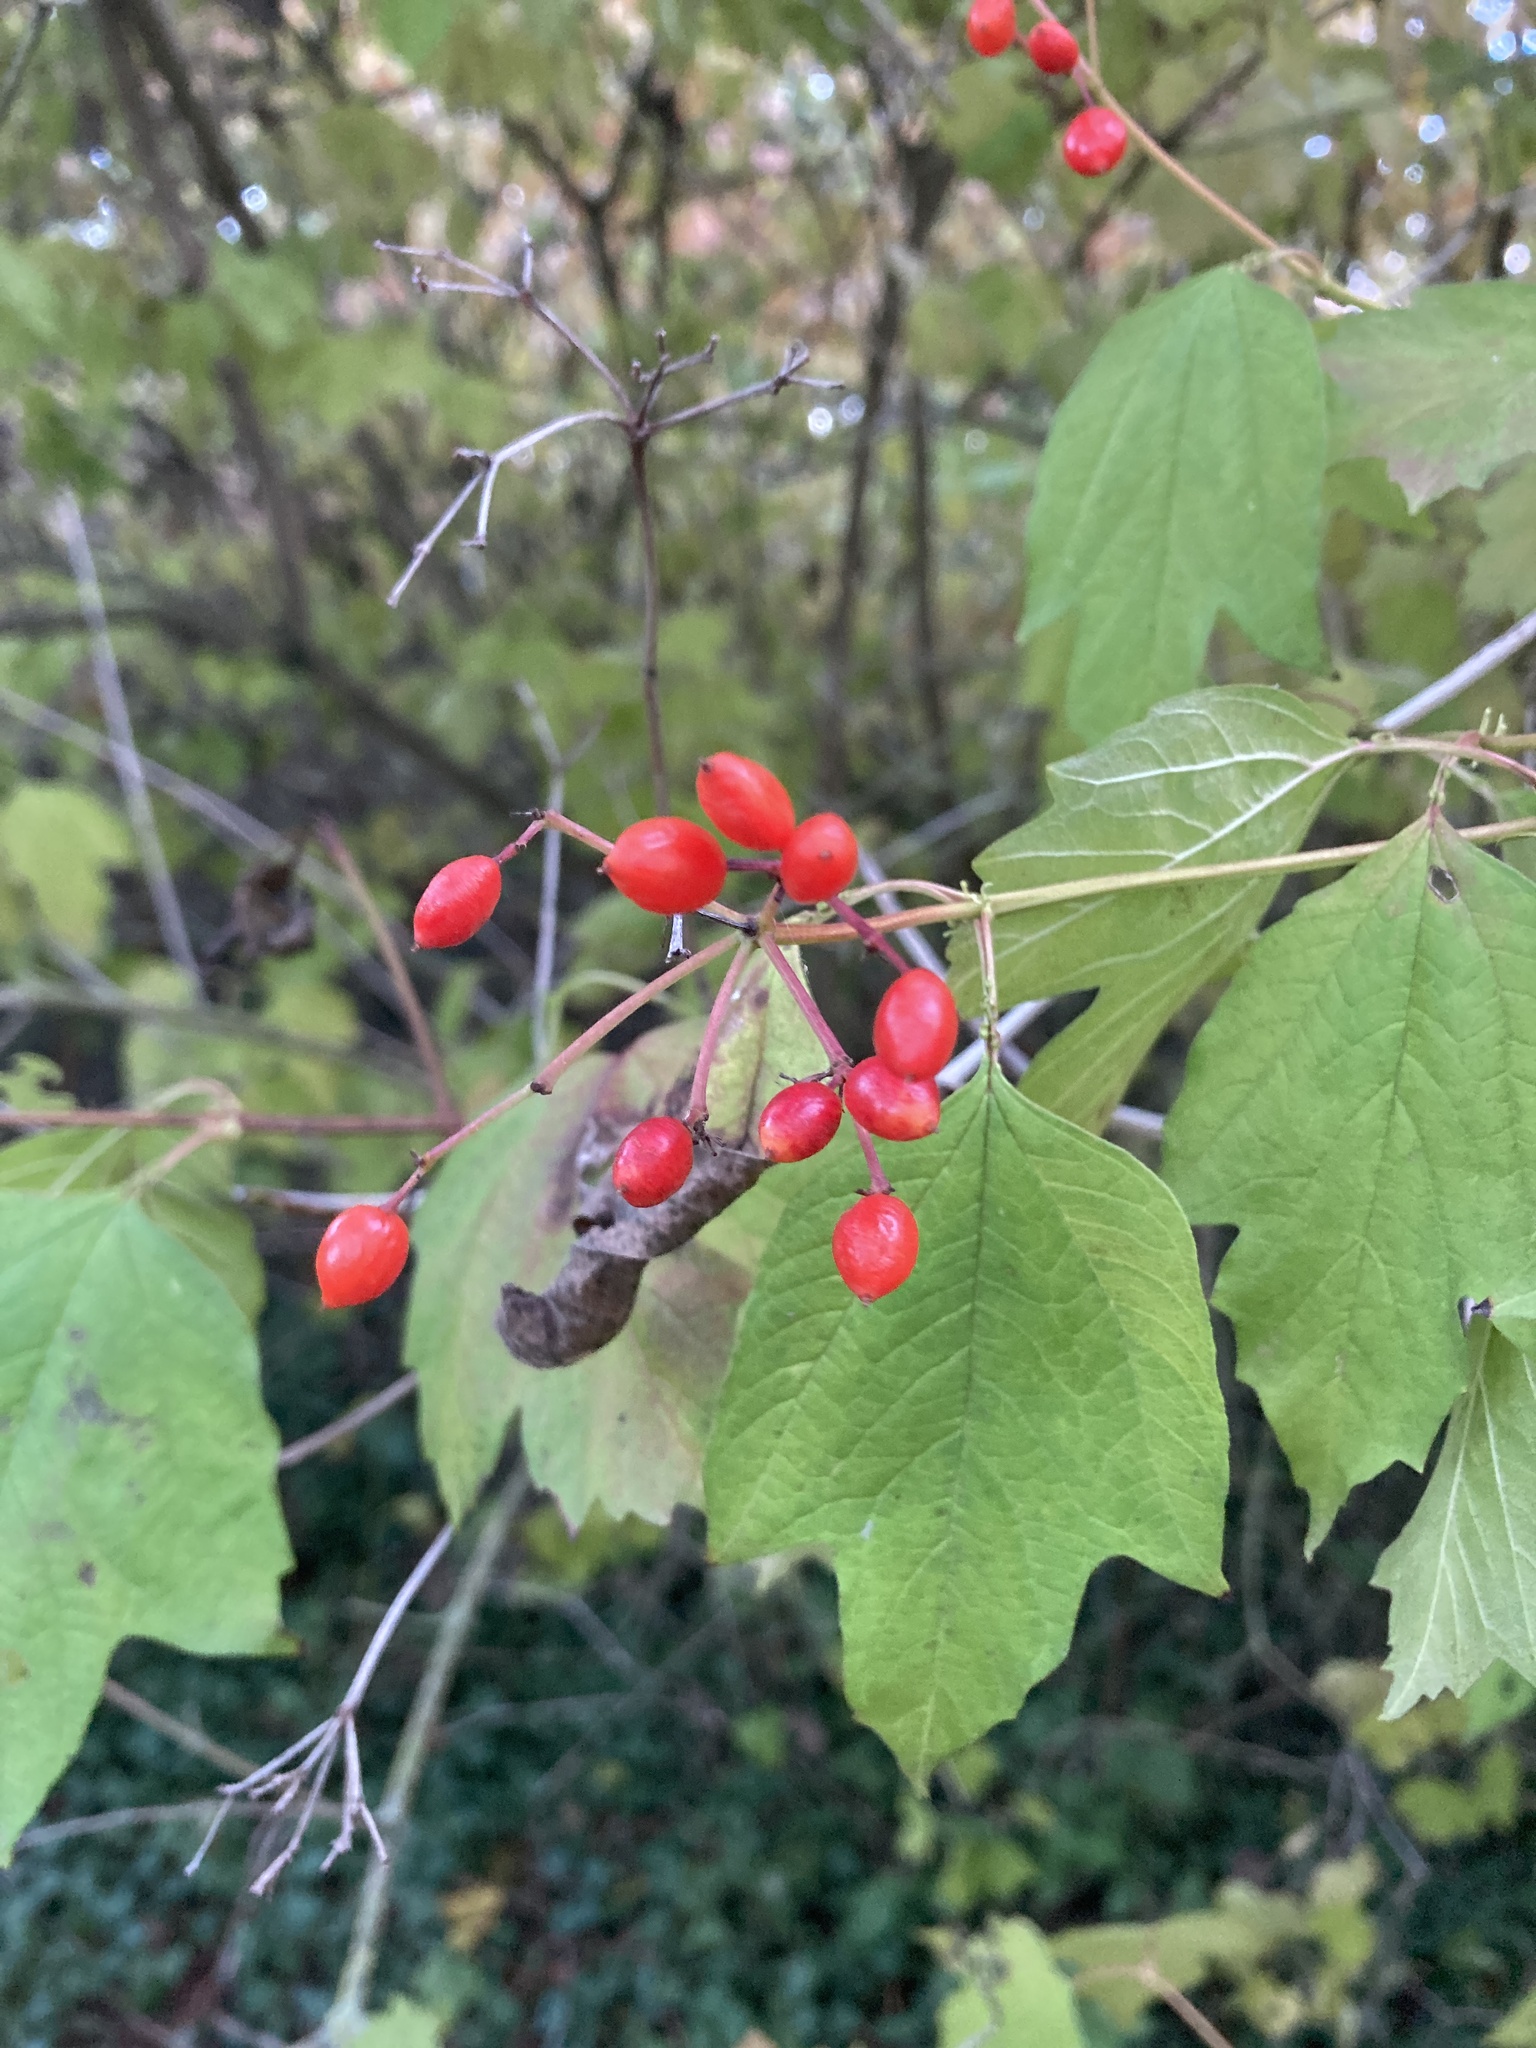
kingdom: Plantae
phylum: Tracheophyta
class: Magnoliopsida
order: Dipsacales
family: Viburnaceae
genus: Viburnum
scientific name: Viburnum opulus
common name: Guelder-rose
